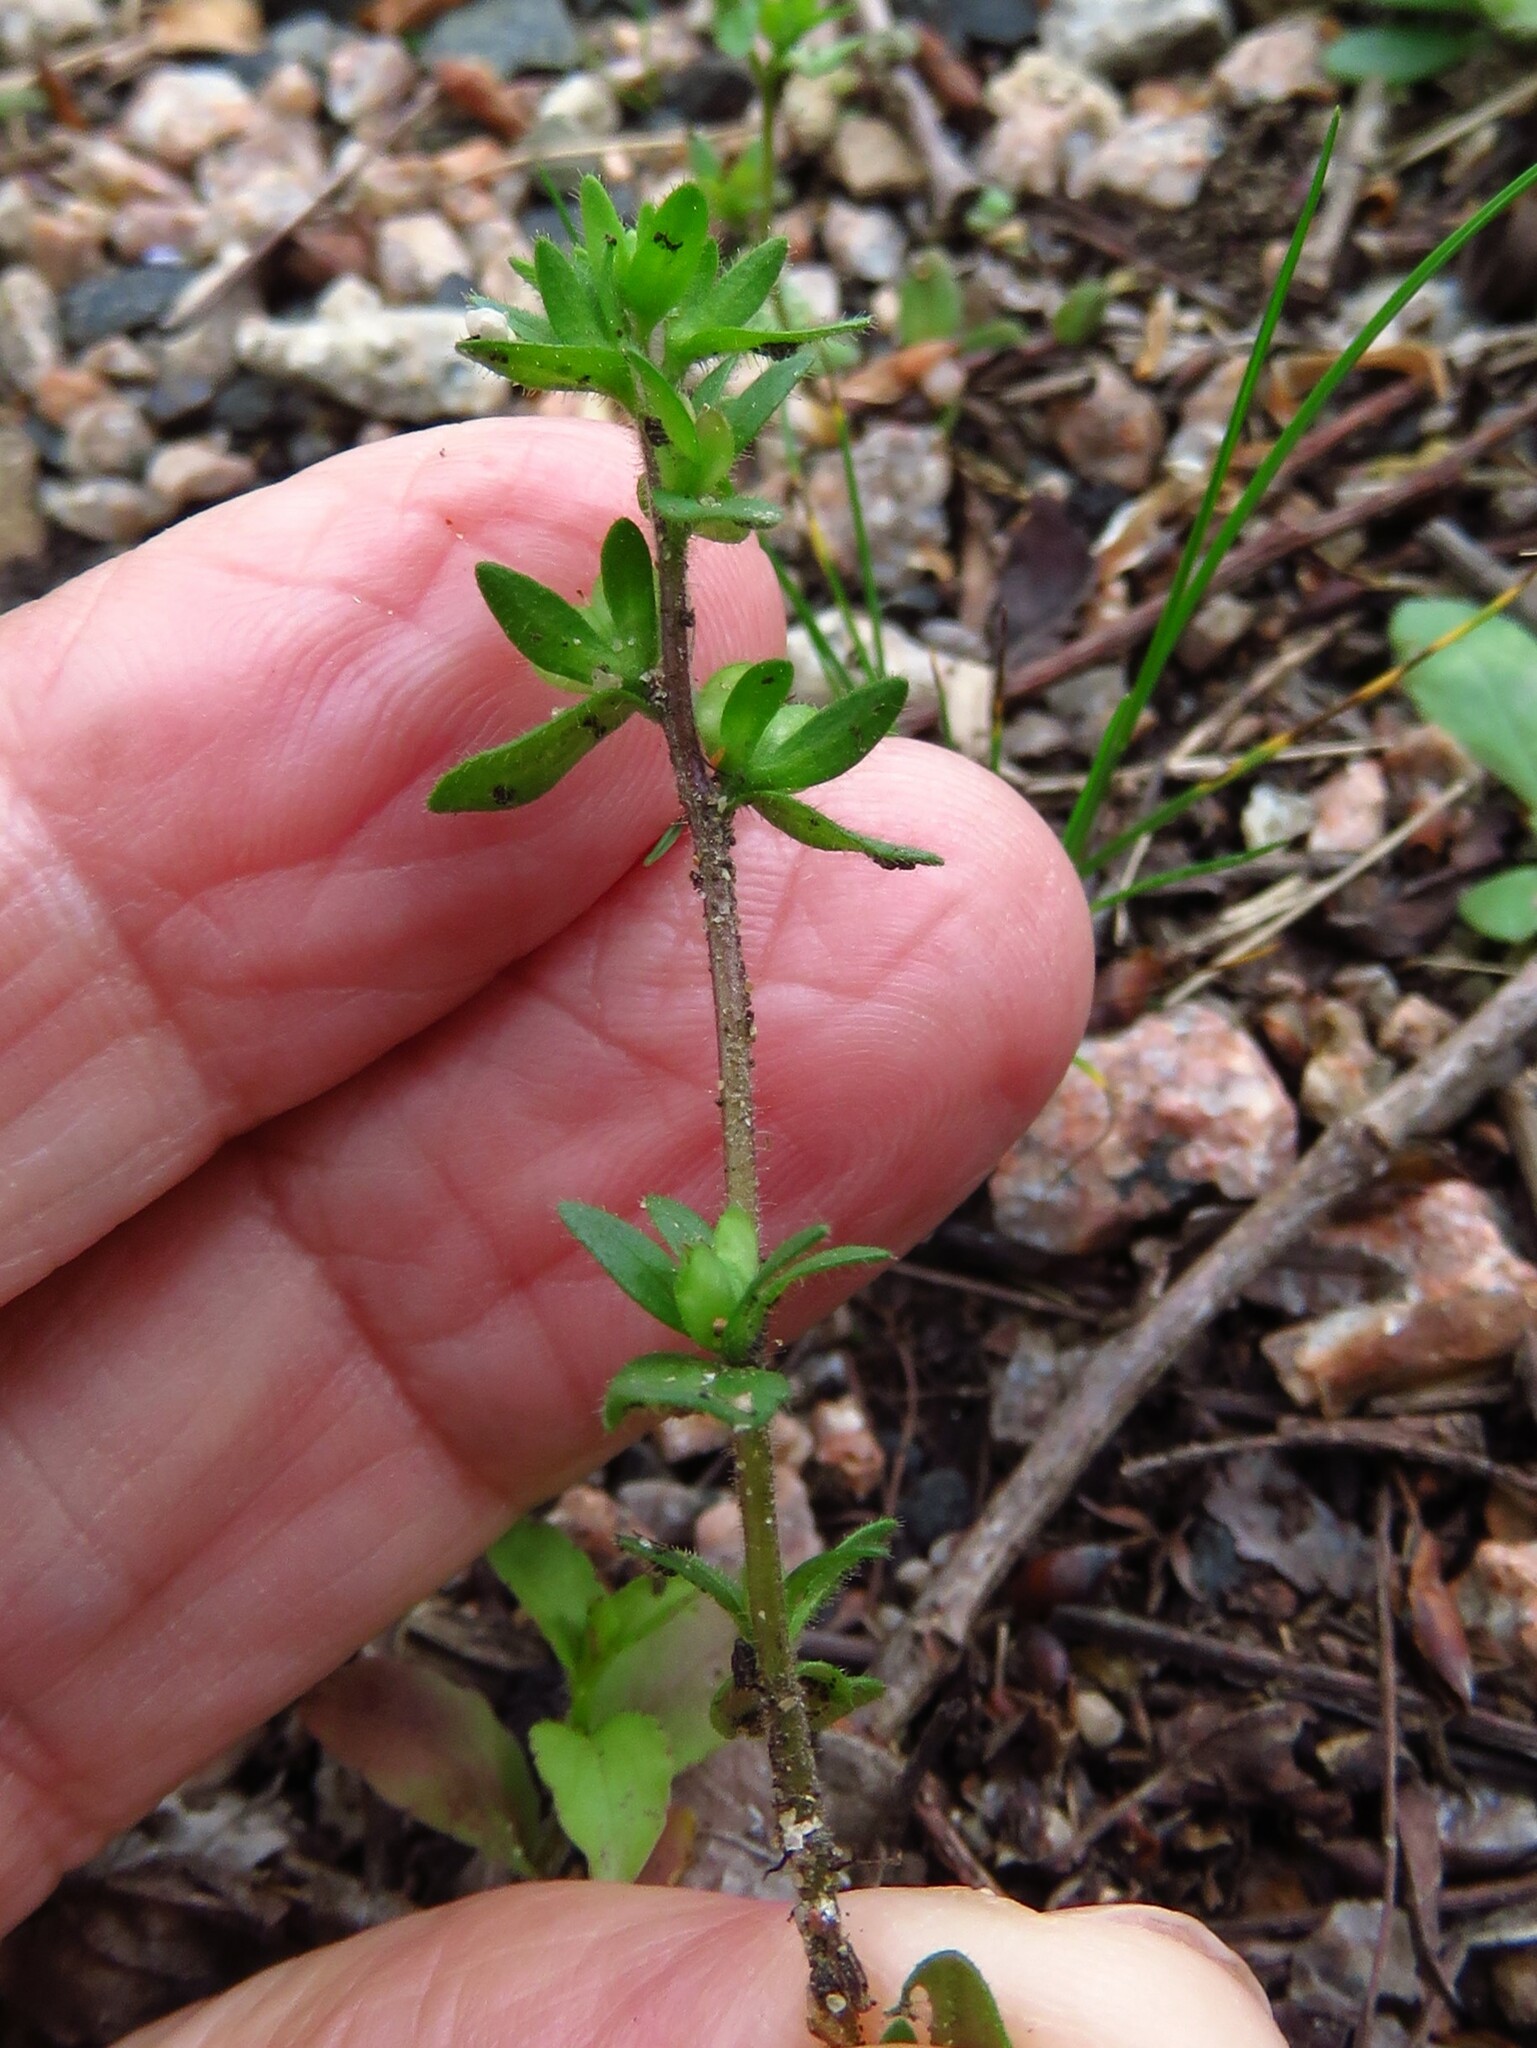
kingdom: Plantae
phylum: Tracheophyta
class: Magnoliopsida
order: Lamiales
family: Plantaginaceae
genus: Veronica
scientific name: Veronica arvensis
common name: Corn speedwell
